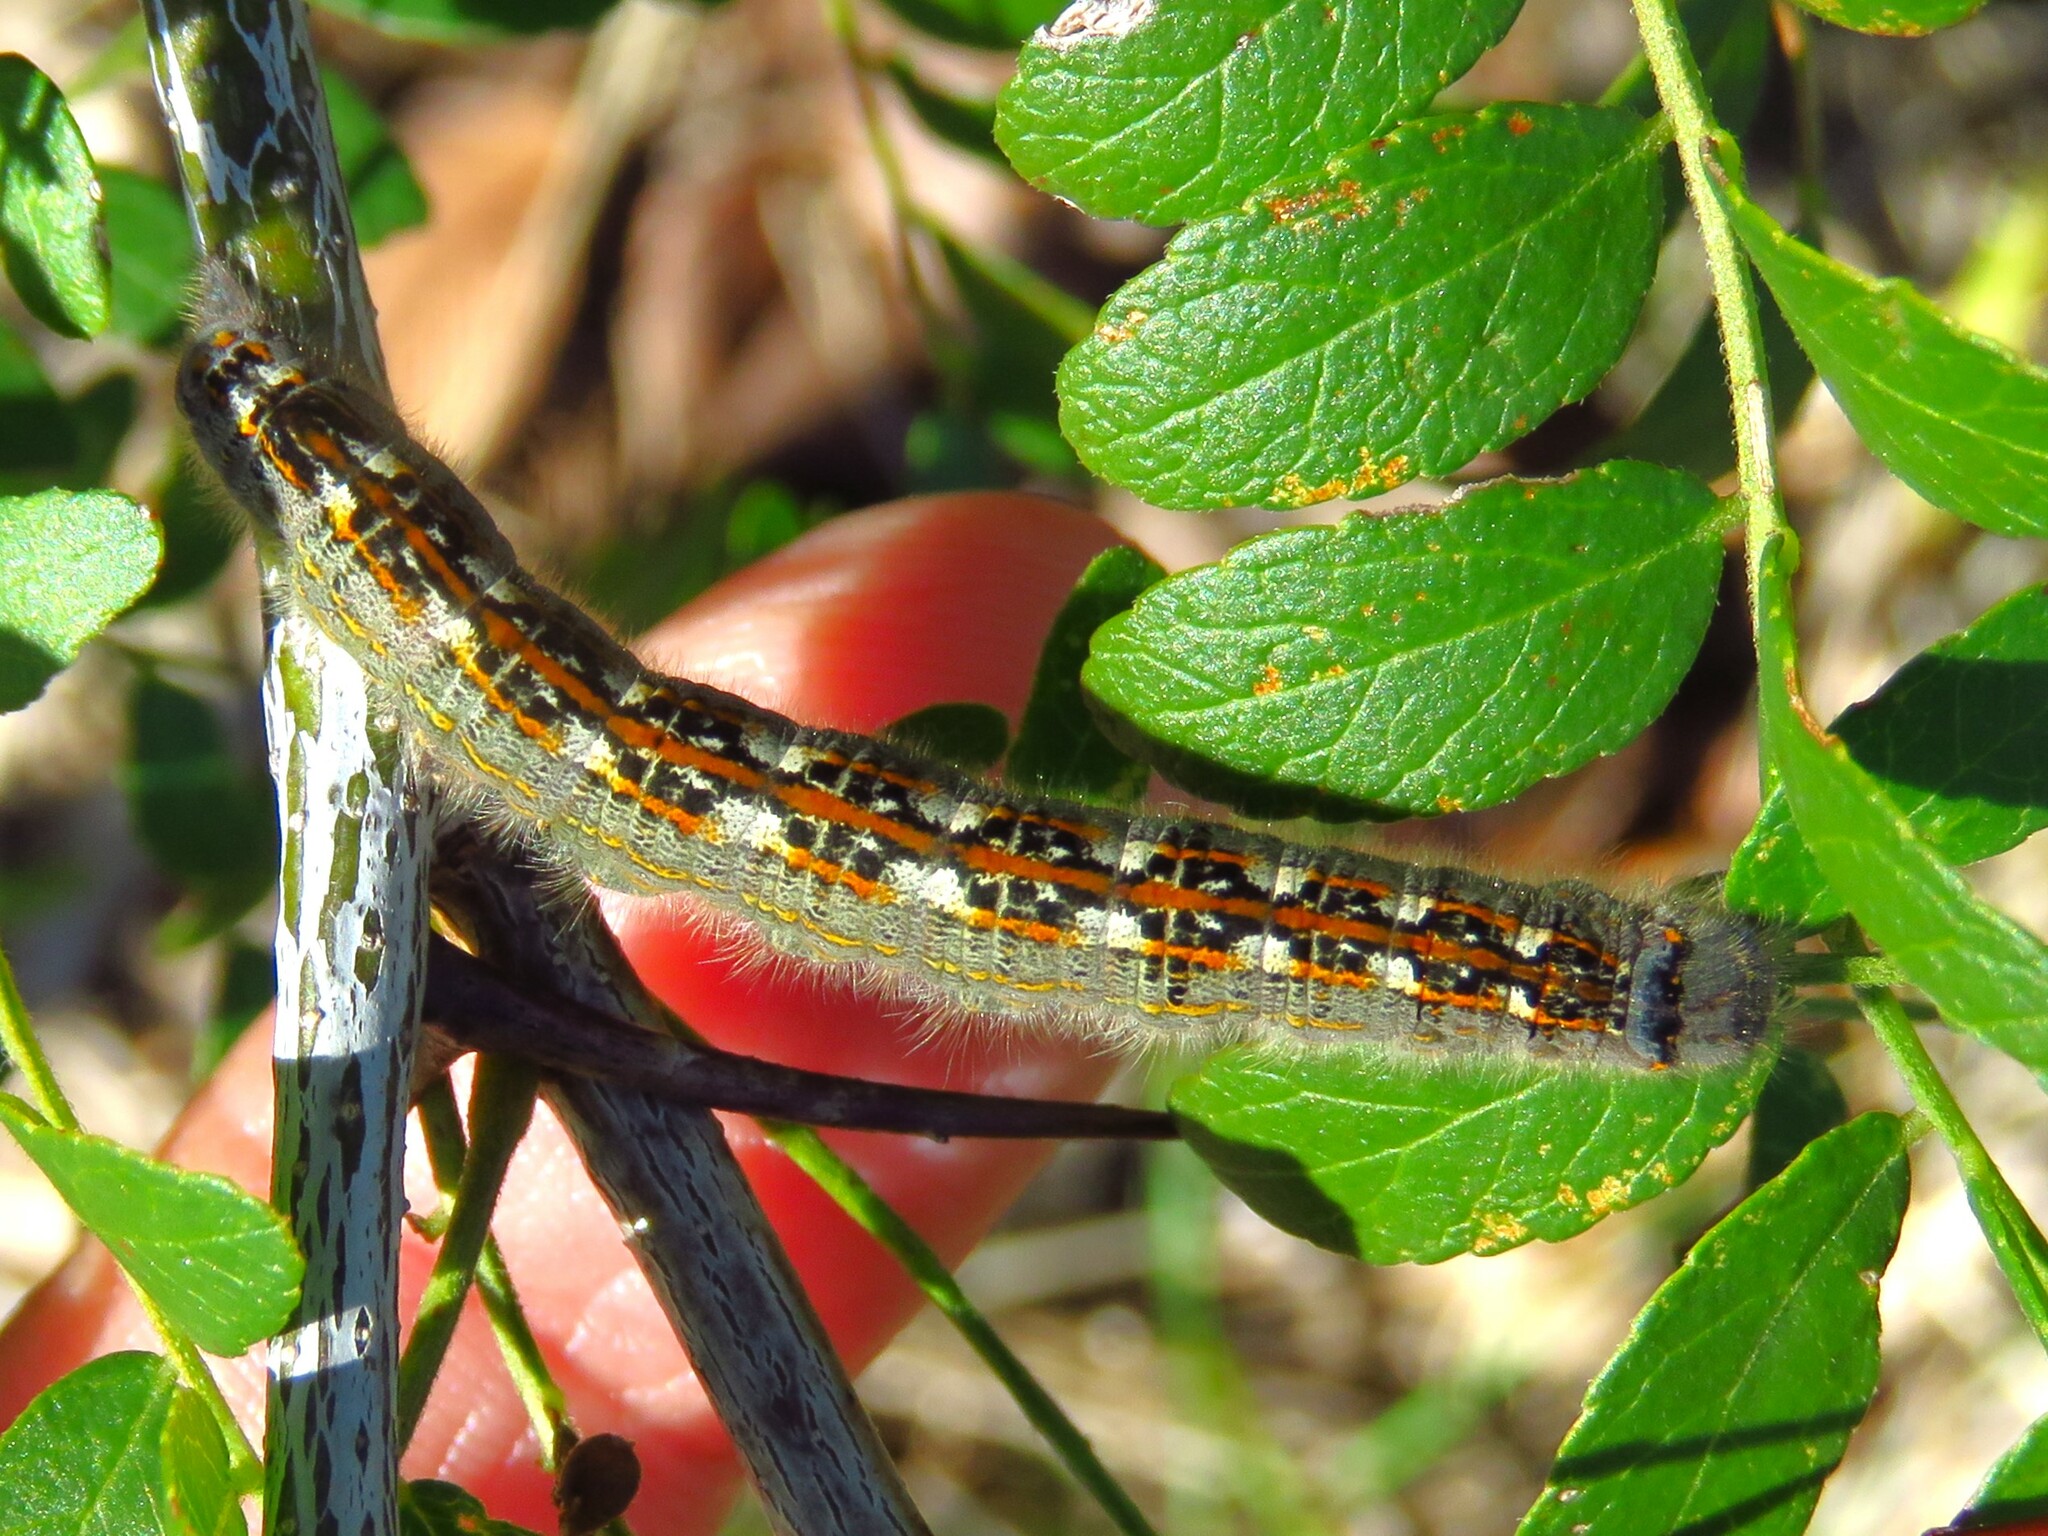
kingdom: Animalia
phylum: Arthropoda
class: Insecta
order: Lepidoptera
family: Lasiocampidae
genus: Heteropacha
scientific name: Heteropacha rileyana
